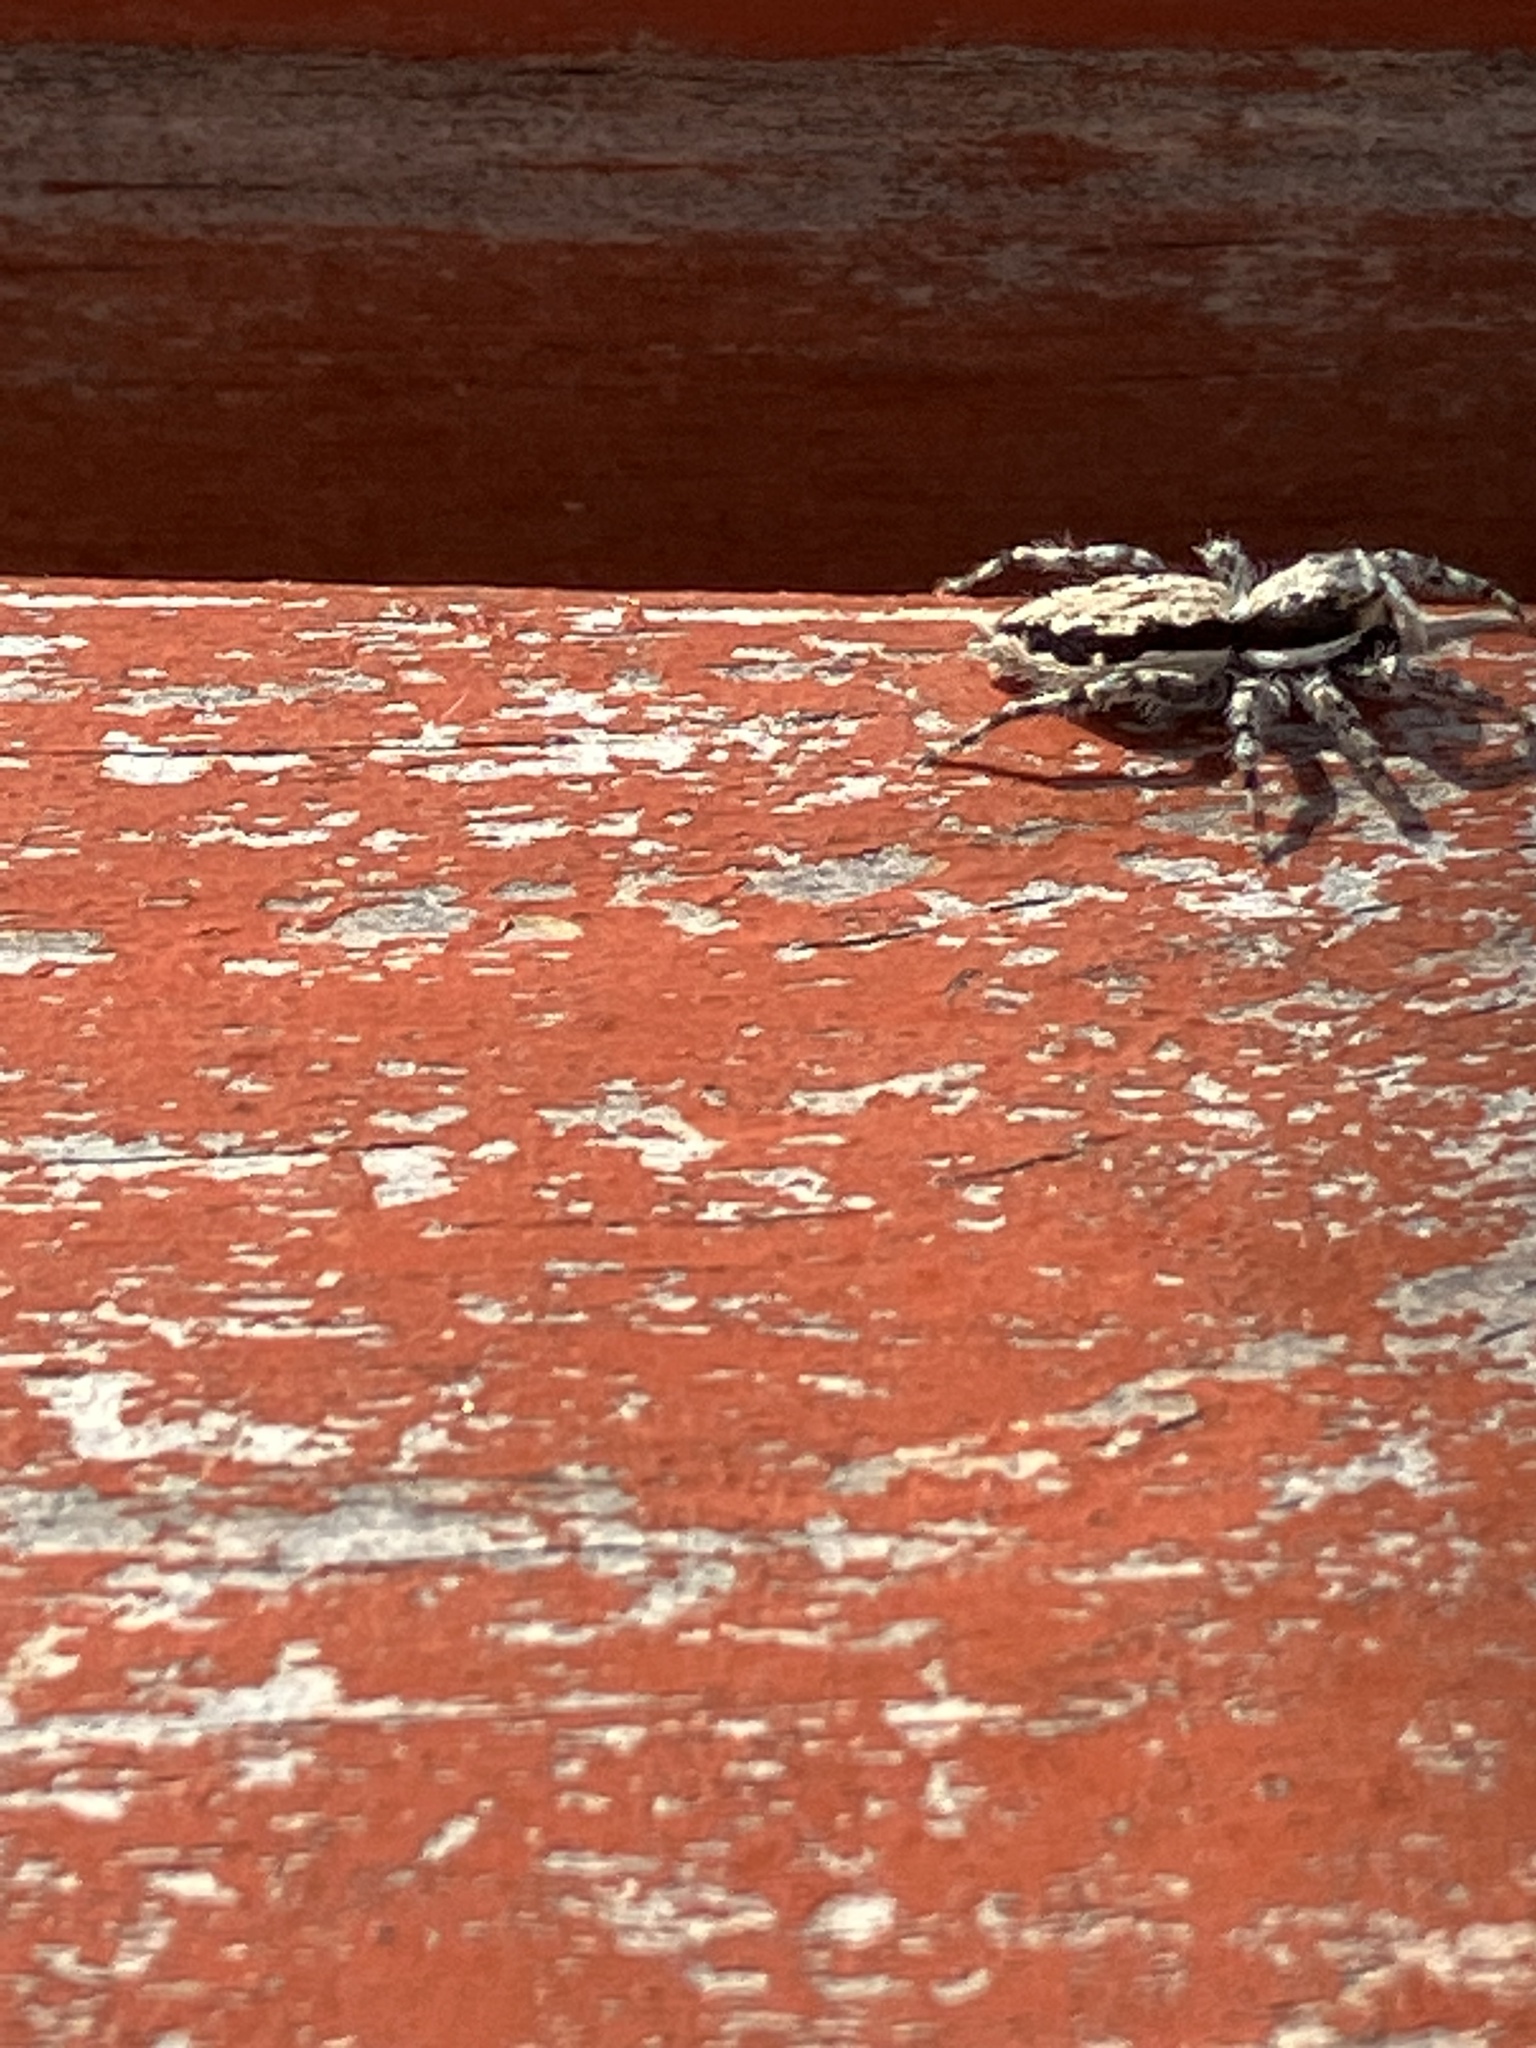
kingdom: Animalia
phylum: Arthropoda
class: Arachnida
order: Araneae
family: Salticidae
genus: Menemerus
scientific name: Menemerus bivittatus
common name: Gray wall jumper
